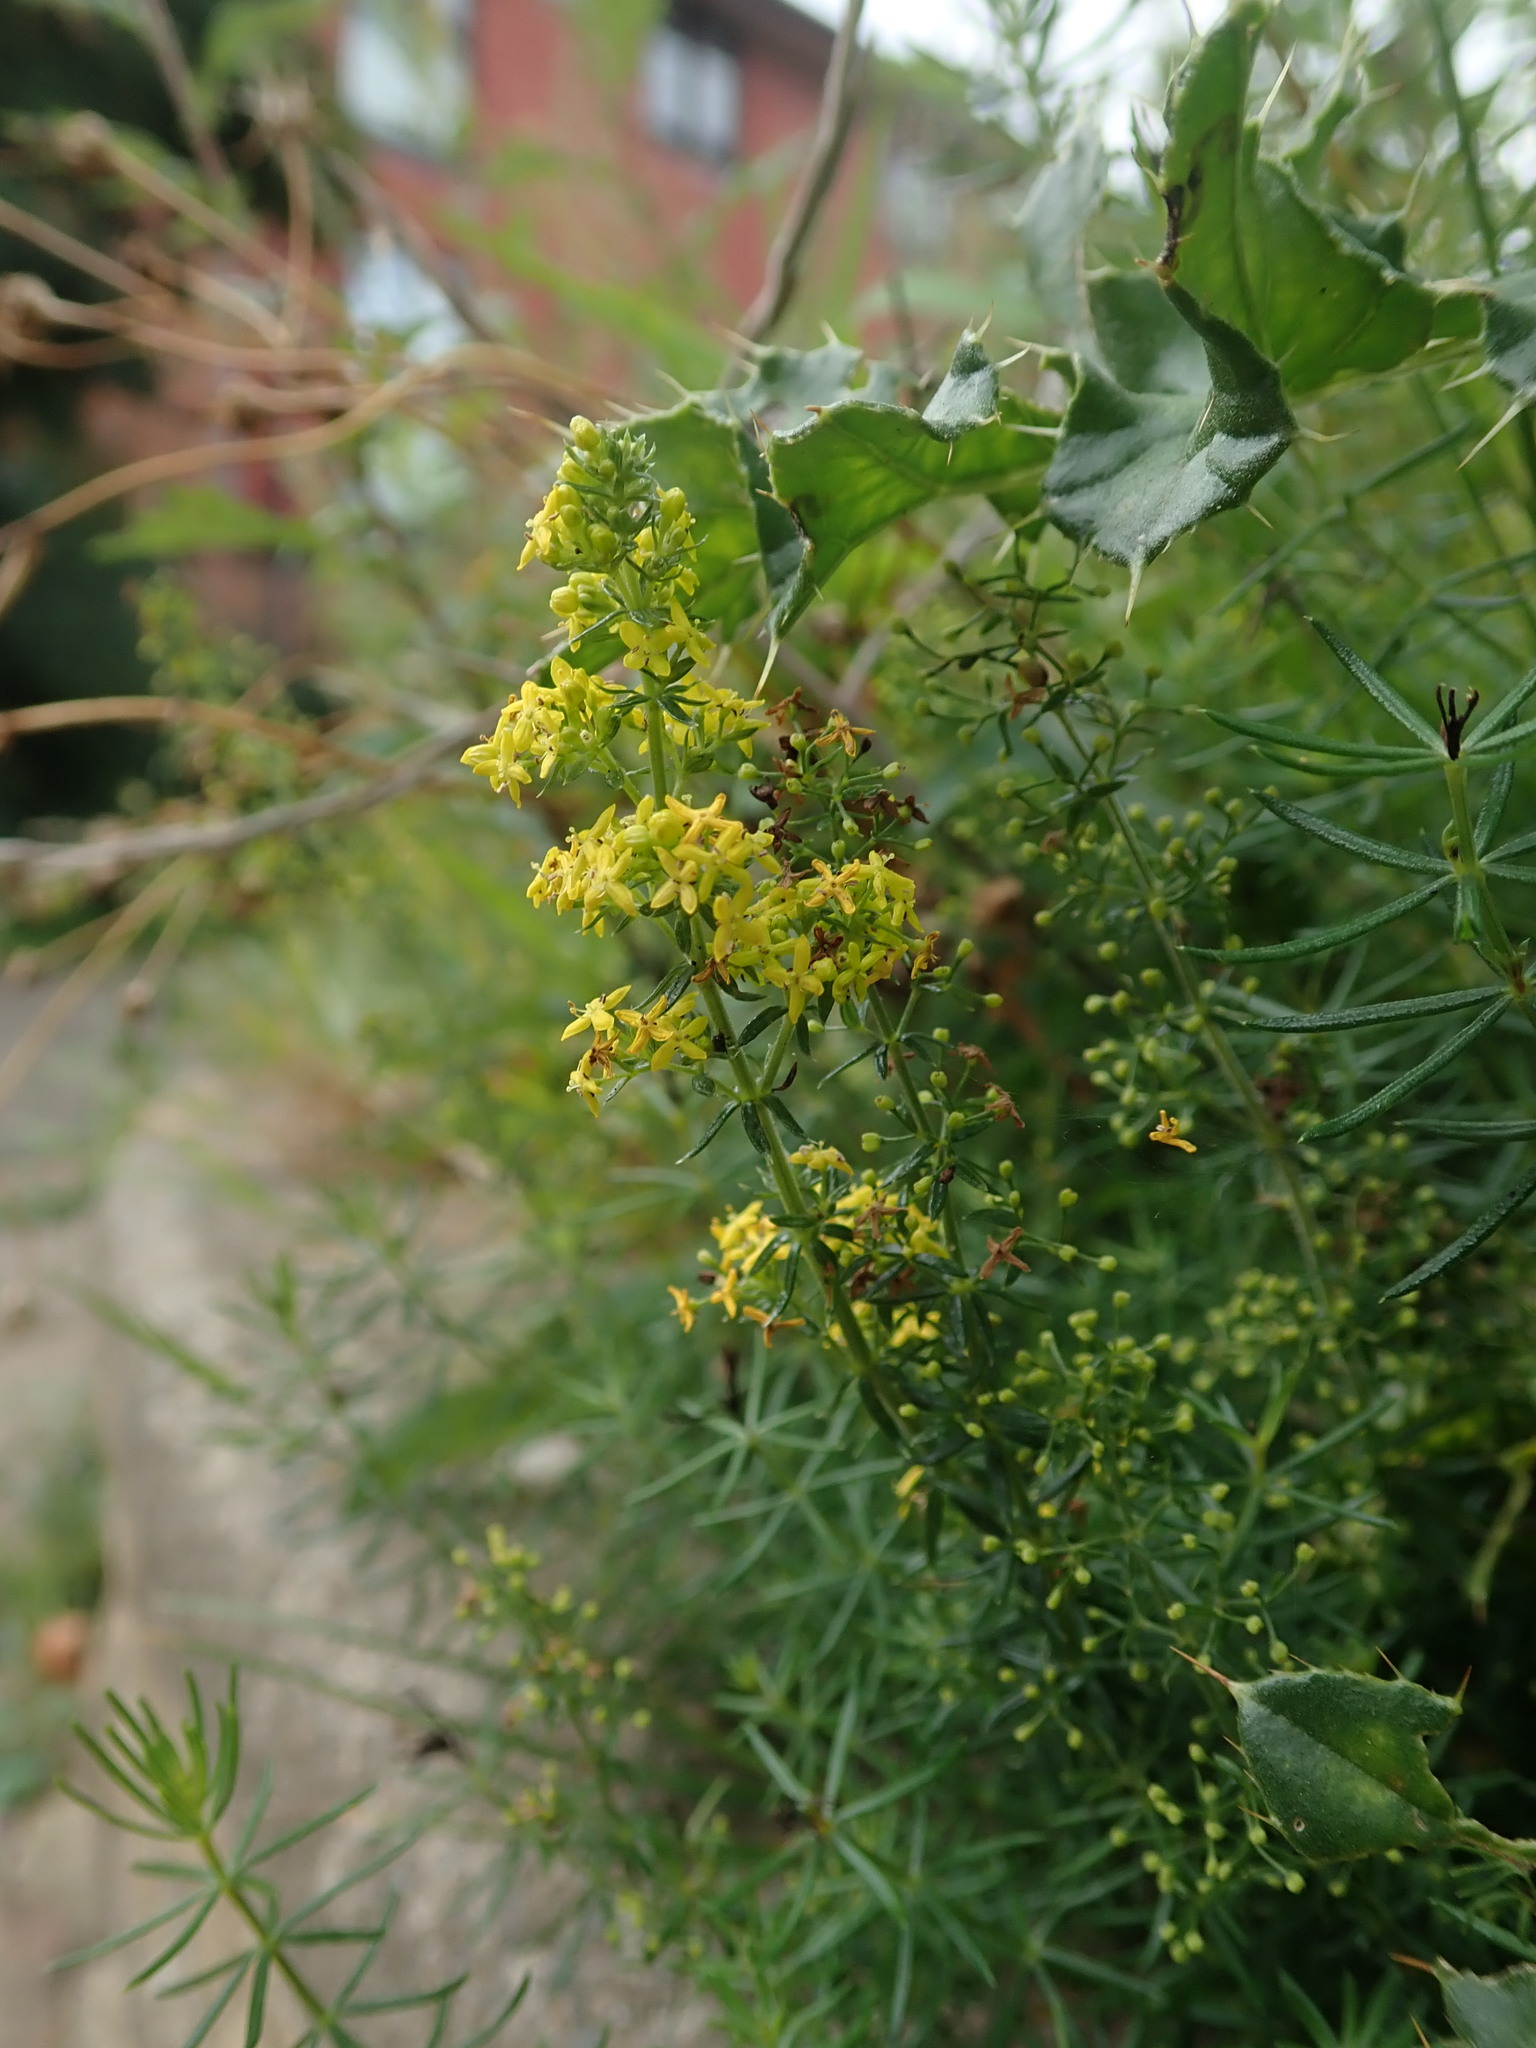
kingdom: Plantae
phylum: Tracheophyta
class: Magnoliopsida
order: Gentianales
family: Rubiaceae
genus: Galium
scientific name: Galium verum
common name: Lady's bedstraw
